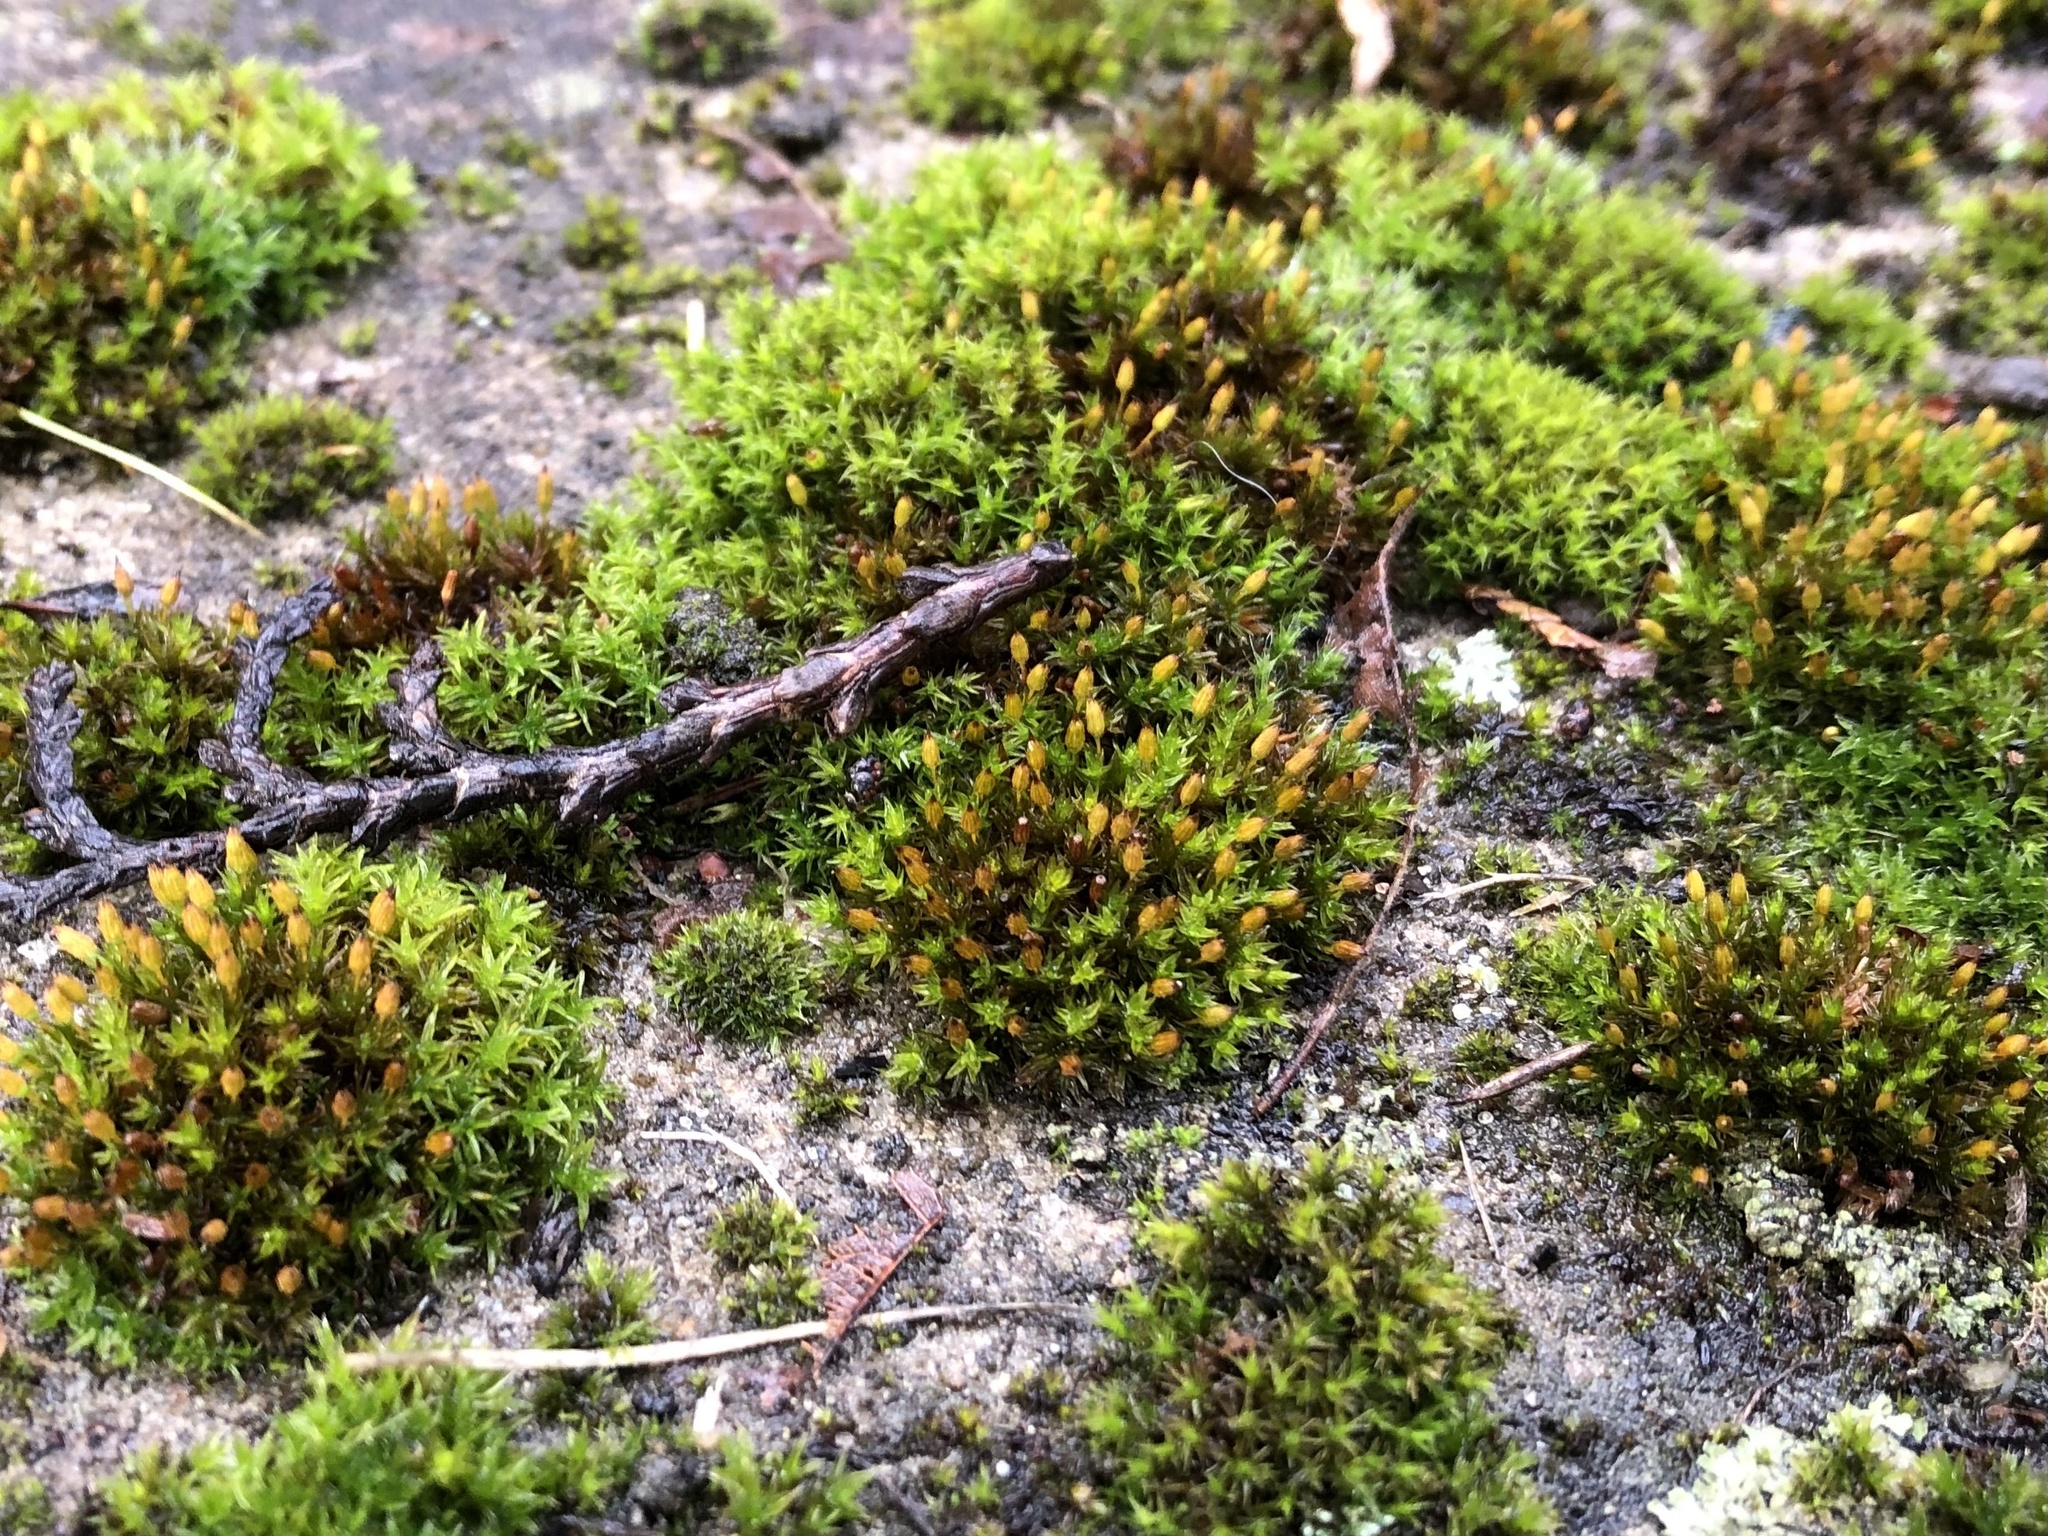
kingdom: Plantae
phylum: Bryophyta
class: Bryopsida
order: Orthotrichales
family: Orthotrichaceae
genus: Orthotrichum
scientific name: Orthotrichum anomalum
